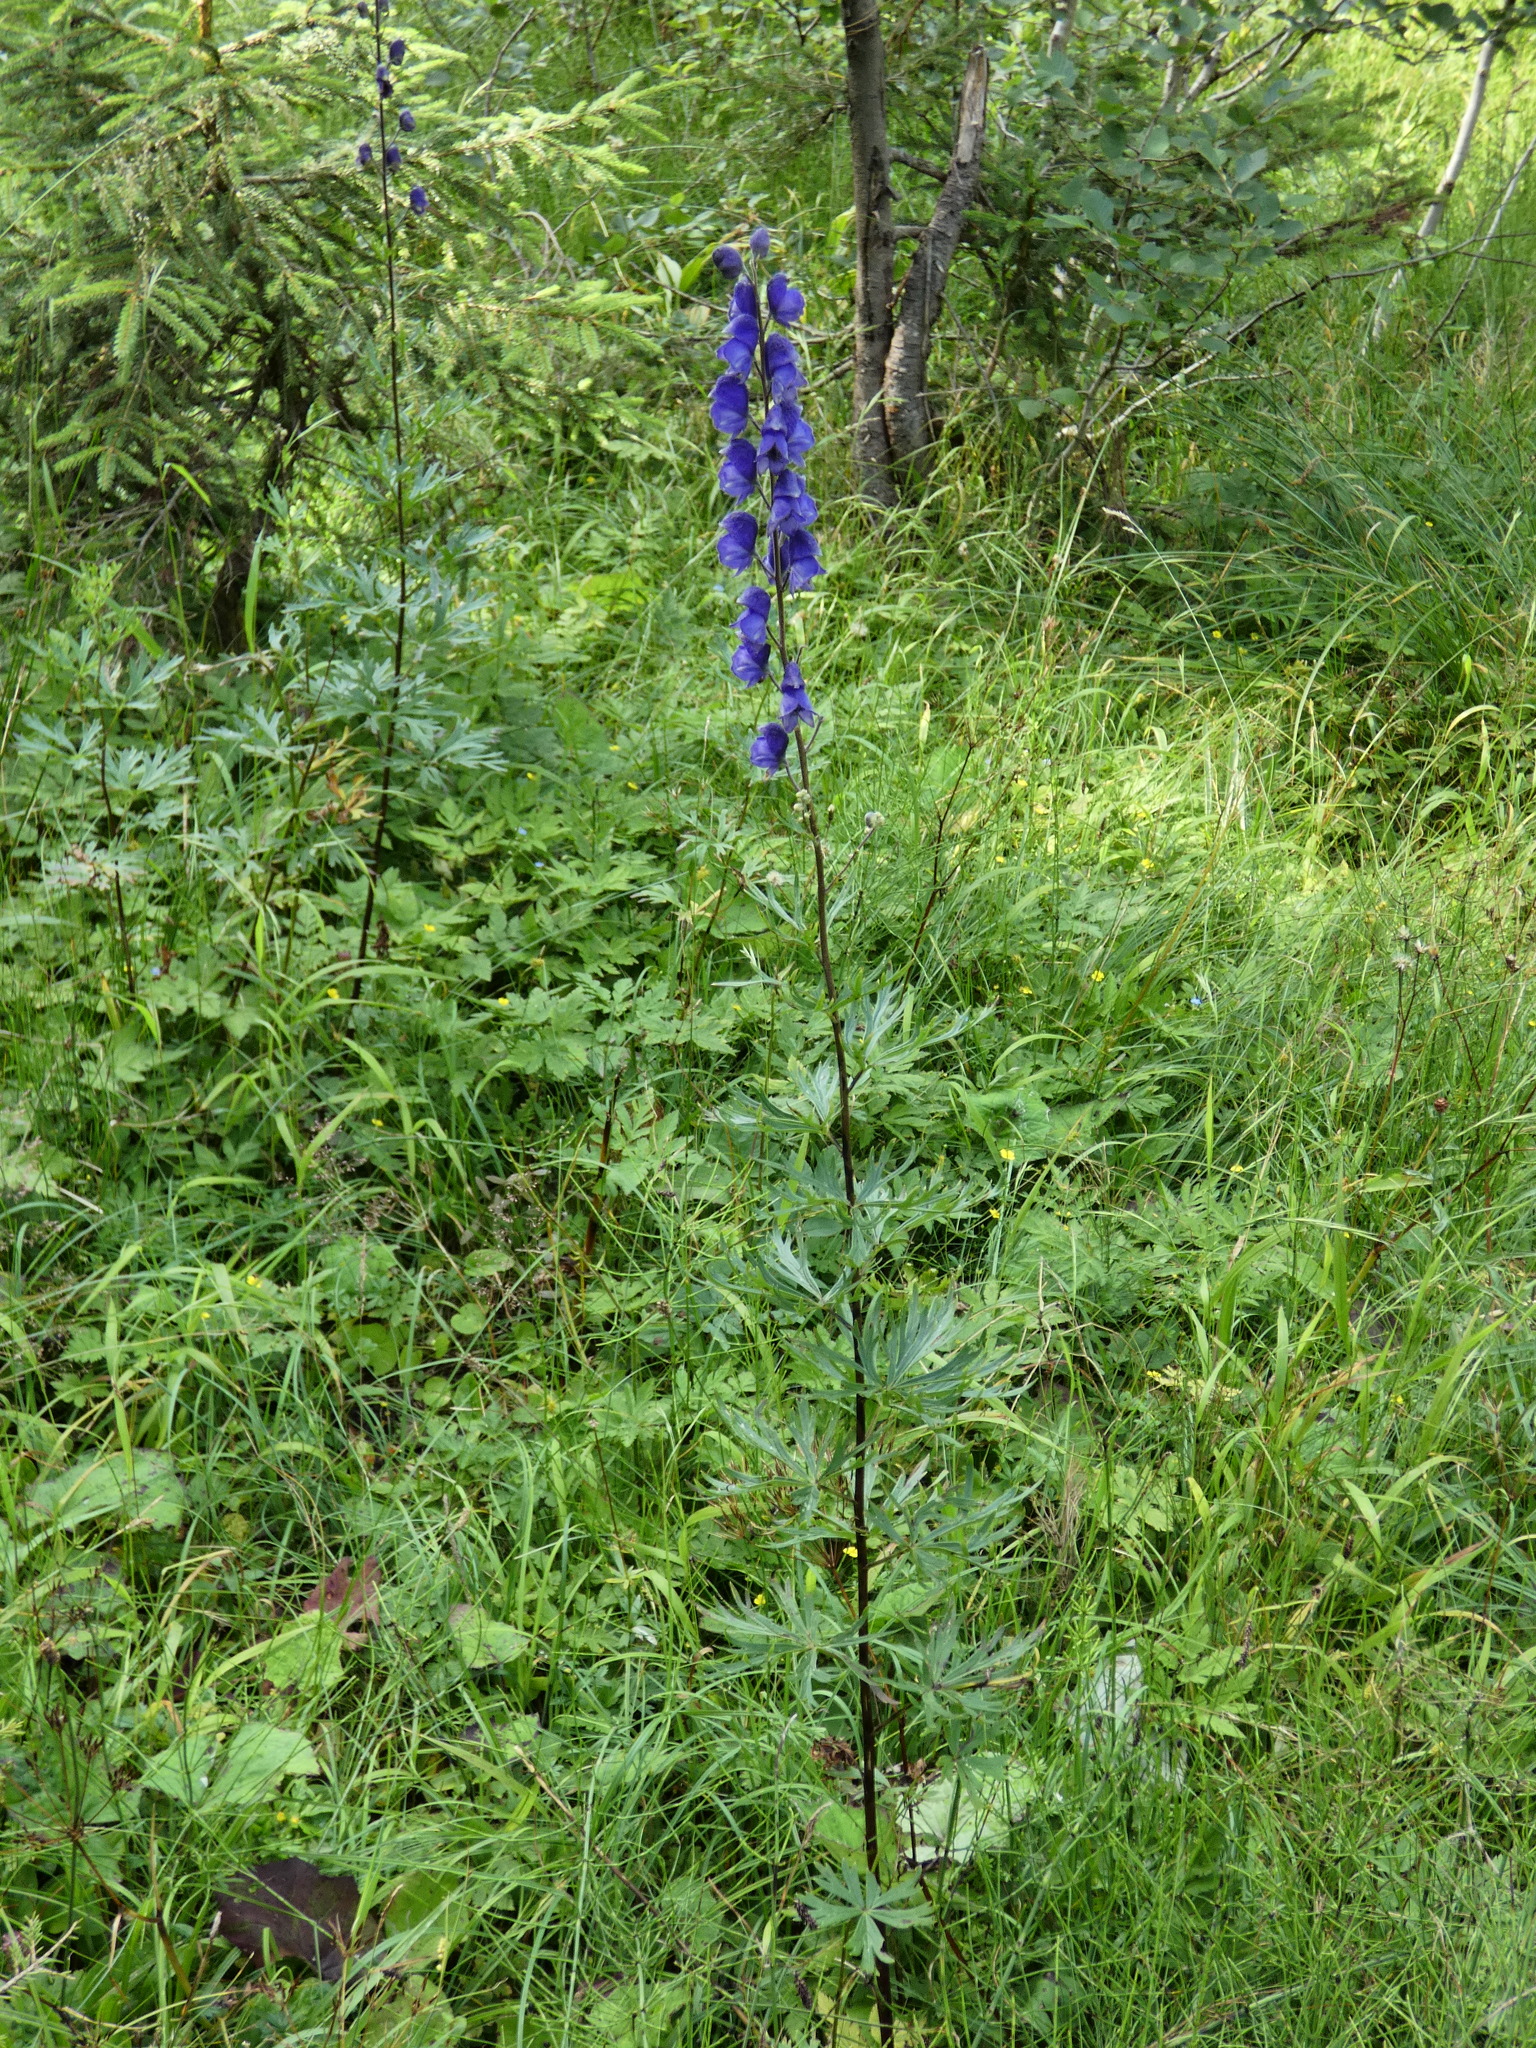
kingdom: Plantae
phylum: Tracheophyta
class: Magnoliopsida
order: Ranunculales
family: Ranunculaceae
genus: Aconitum
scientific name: Aconitum napellus
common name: Garden monkshood
